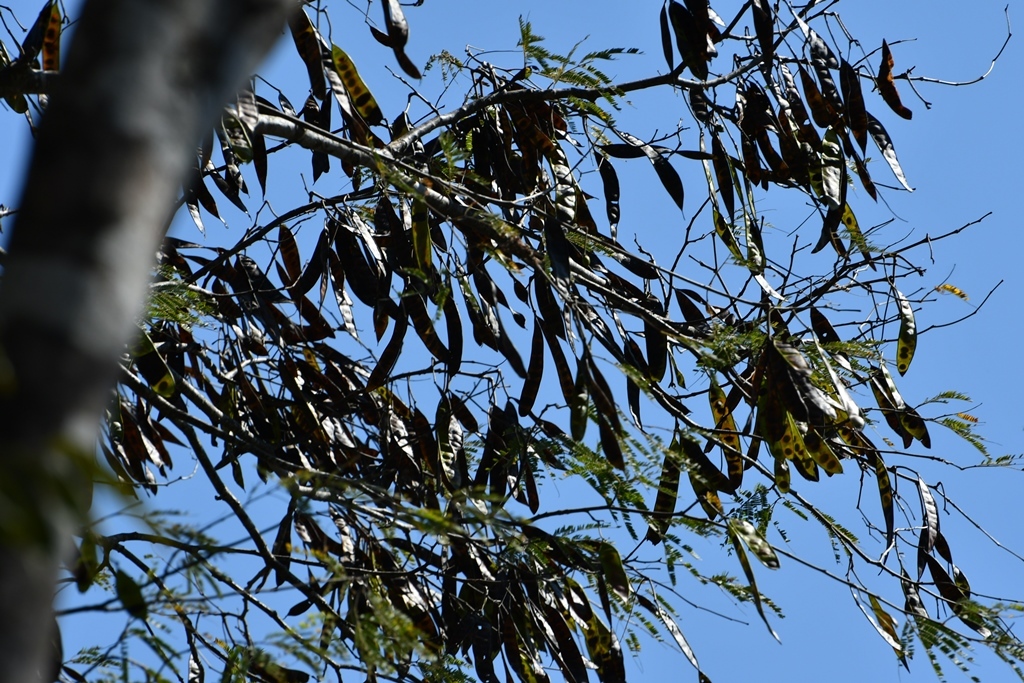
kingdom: Plantae
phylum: Tracheophyta
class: Magnoliopsida
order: Fabales
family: Fabaceae
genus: Lysiloma
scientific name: Lysiloma acapulcense
